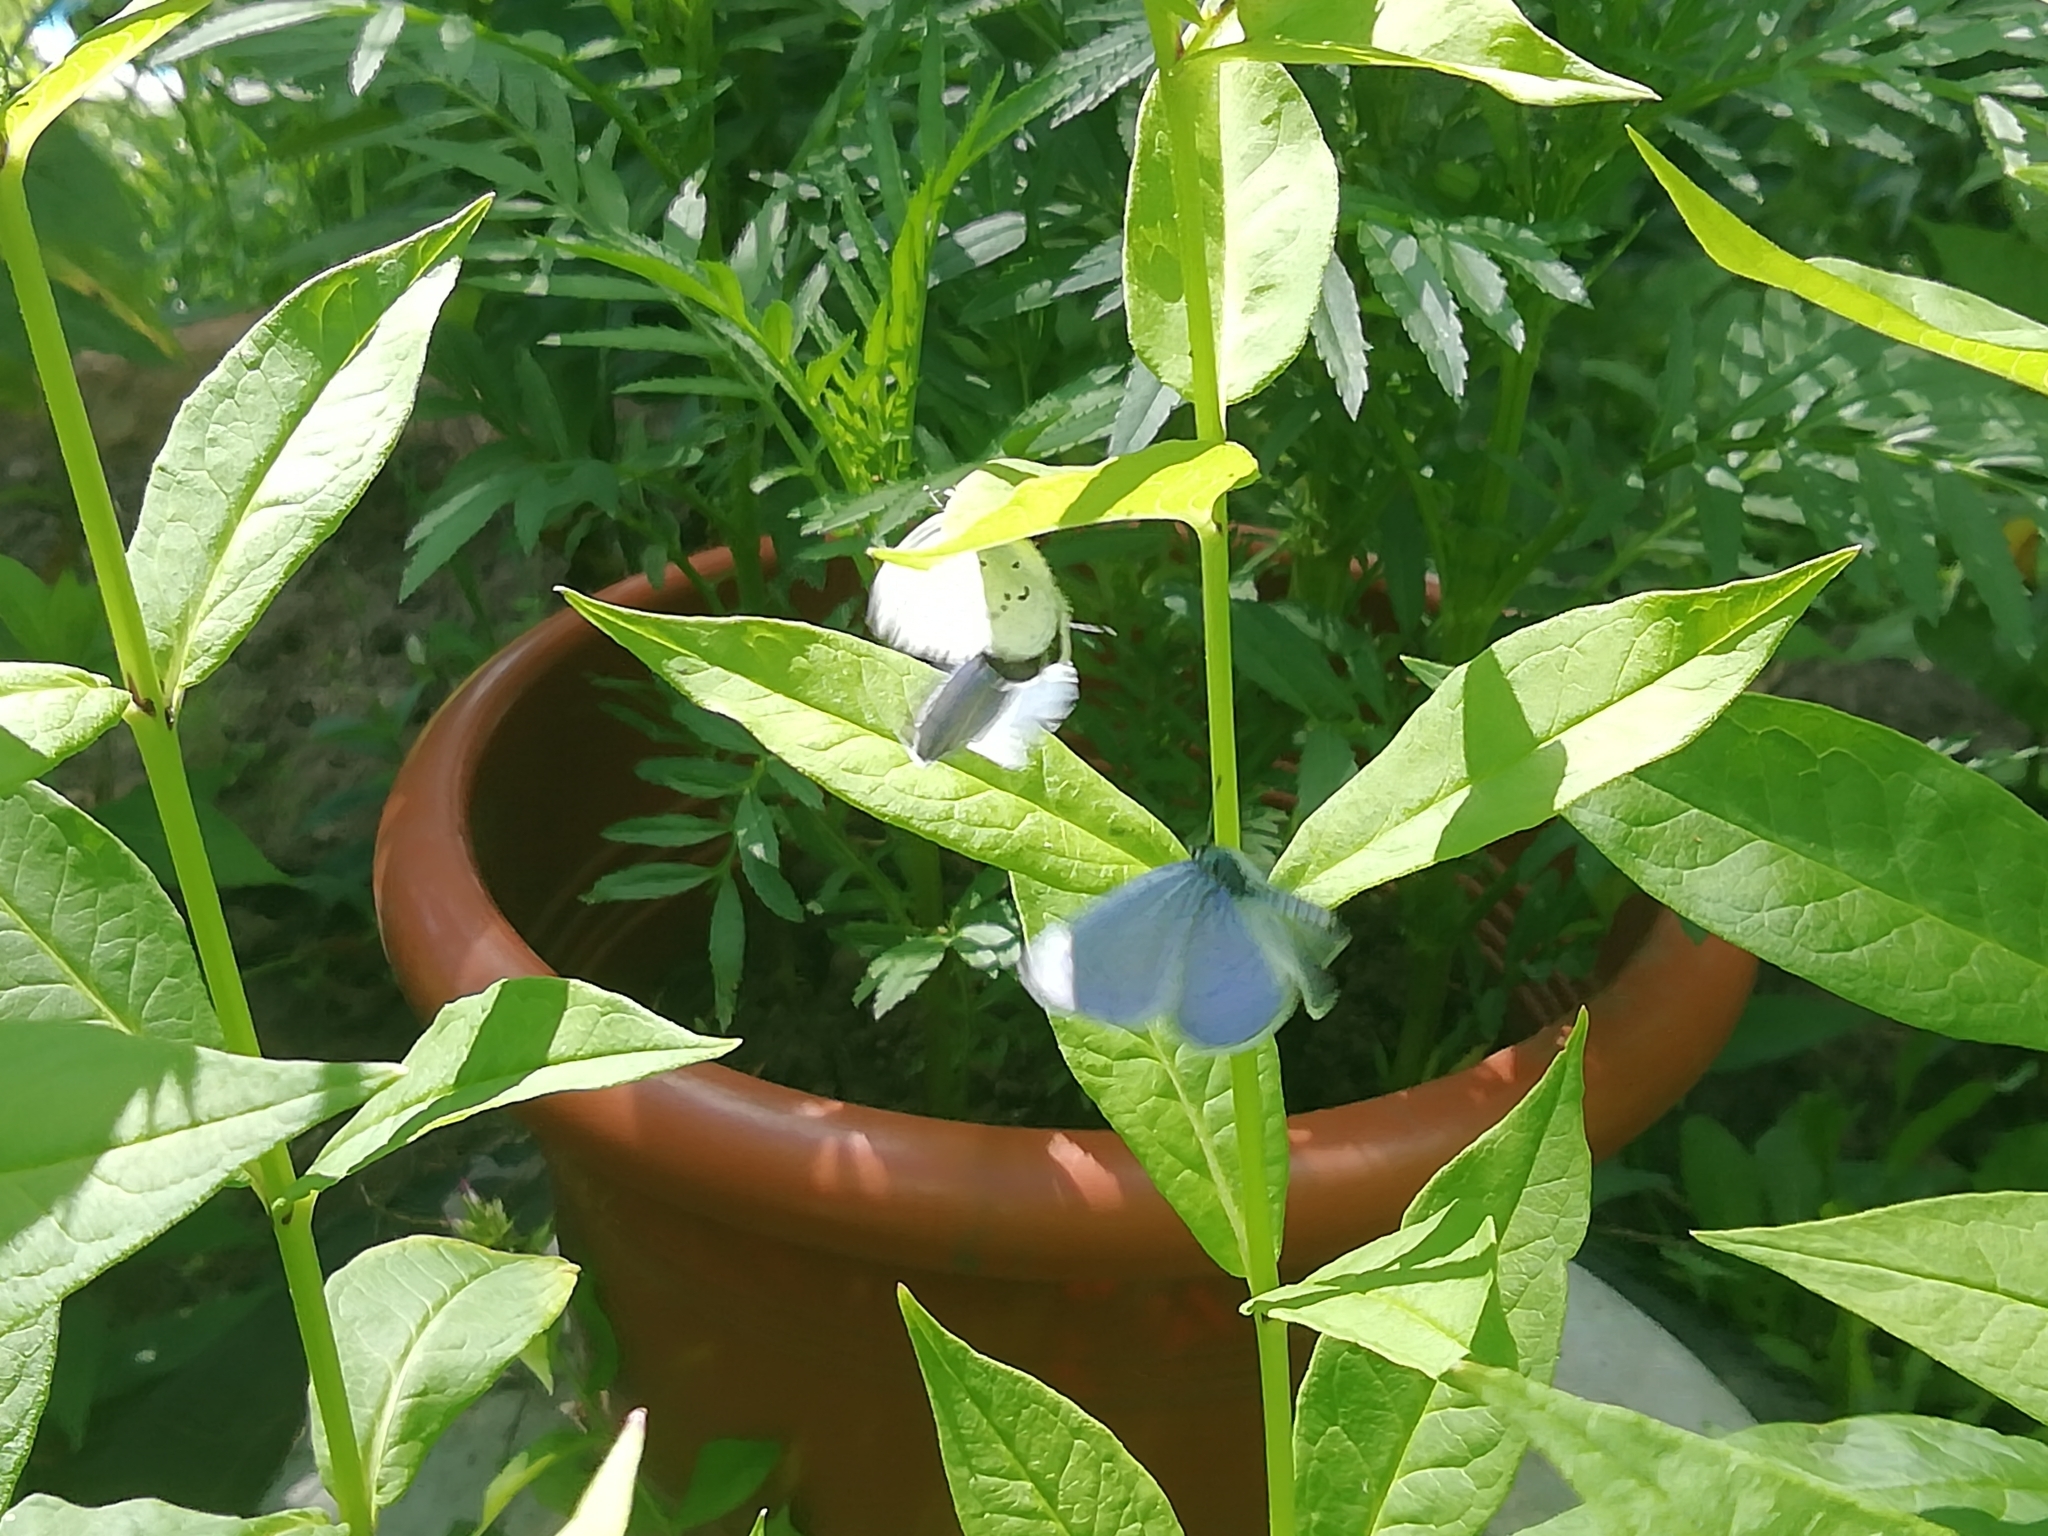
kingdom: Animalia
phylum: Arthropoda
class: Insecta
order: Lepidoptera
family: Lycaenidae
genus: Celastrina
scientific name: Celastrina argiolus
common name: Holly blue
